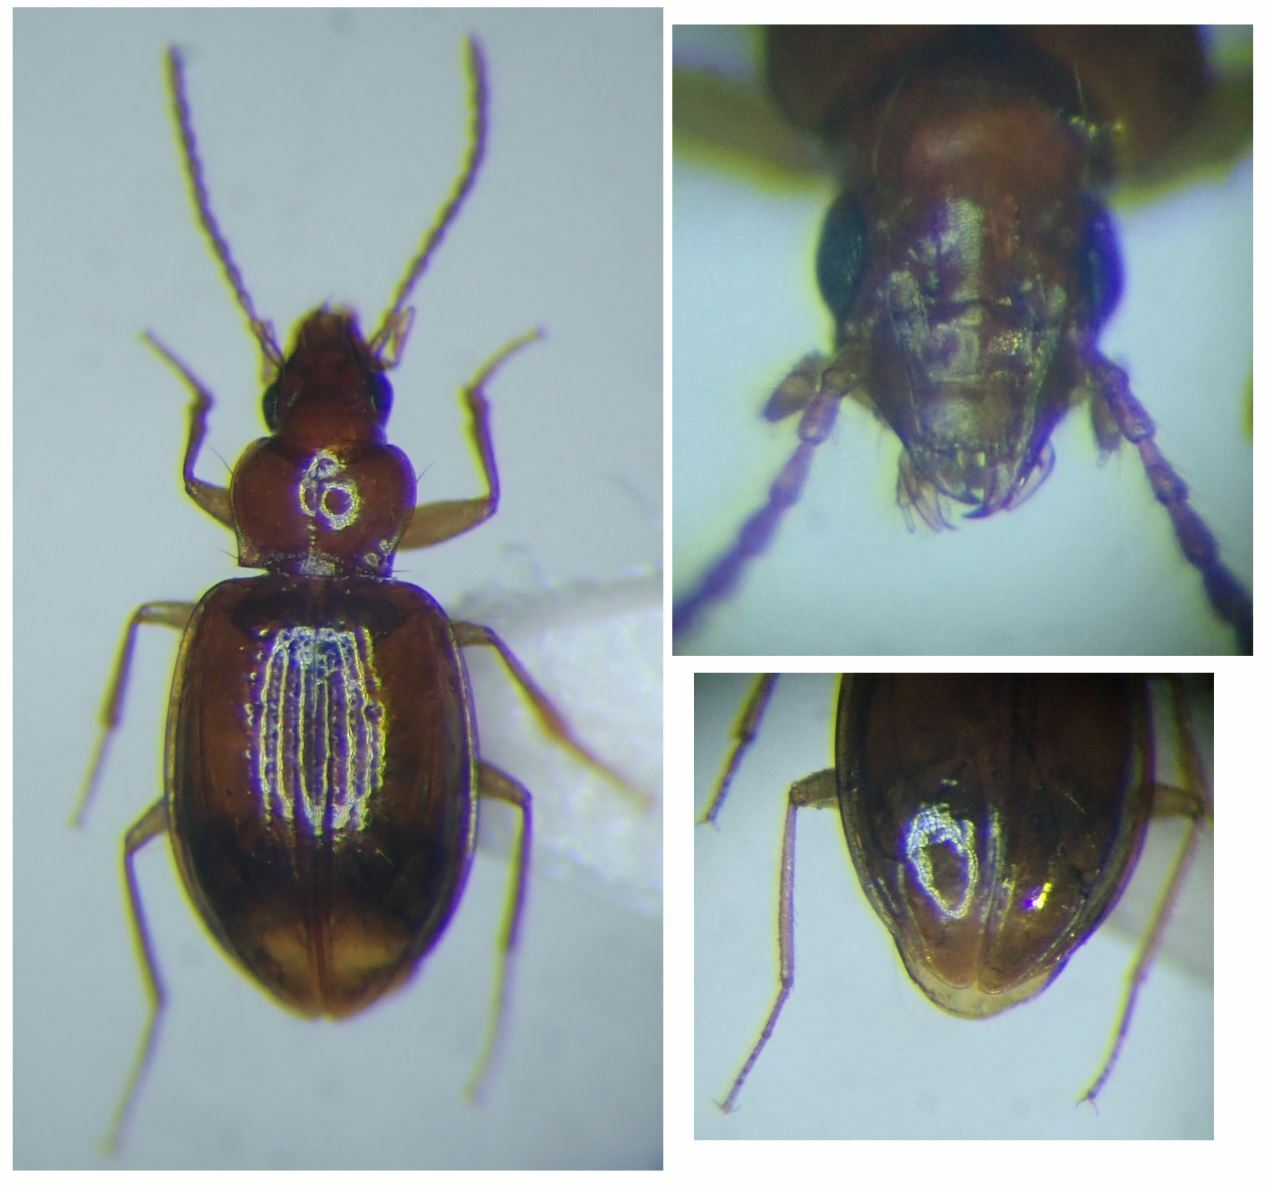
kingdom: Animalia
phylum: Arthropoda
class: Insecta
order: Coleoptera
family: Carabidae
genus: Porotachys
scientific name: Porotachys bisulcatus
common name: Double-grooved riverbank round beetle
